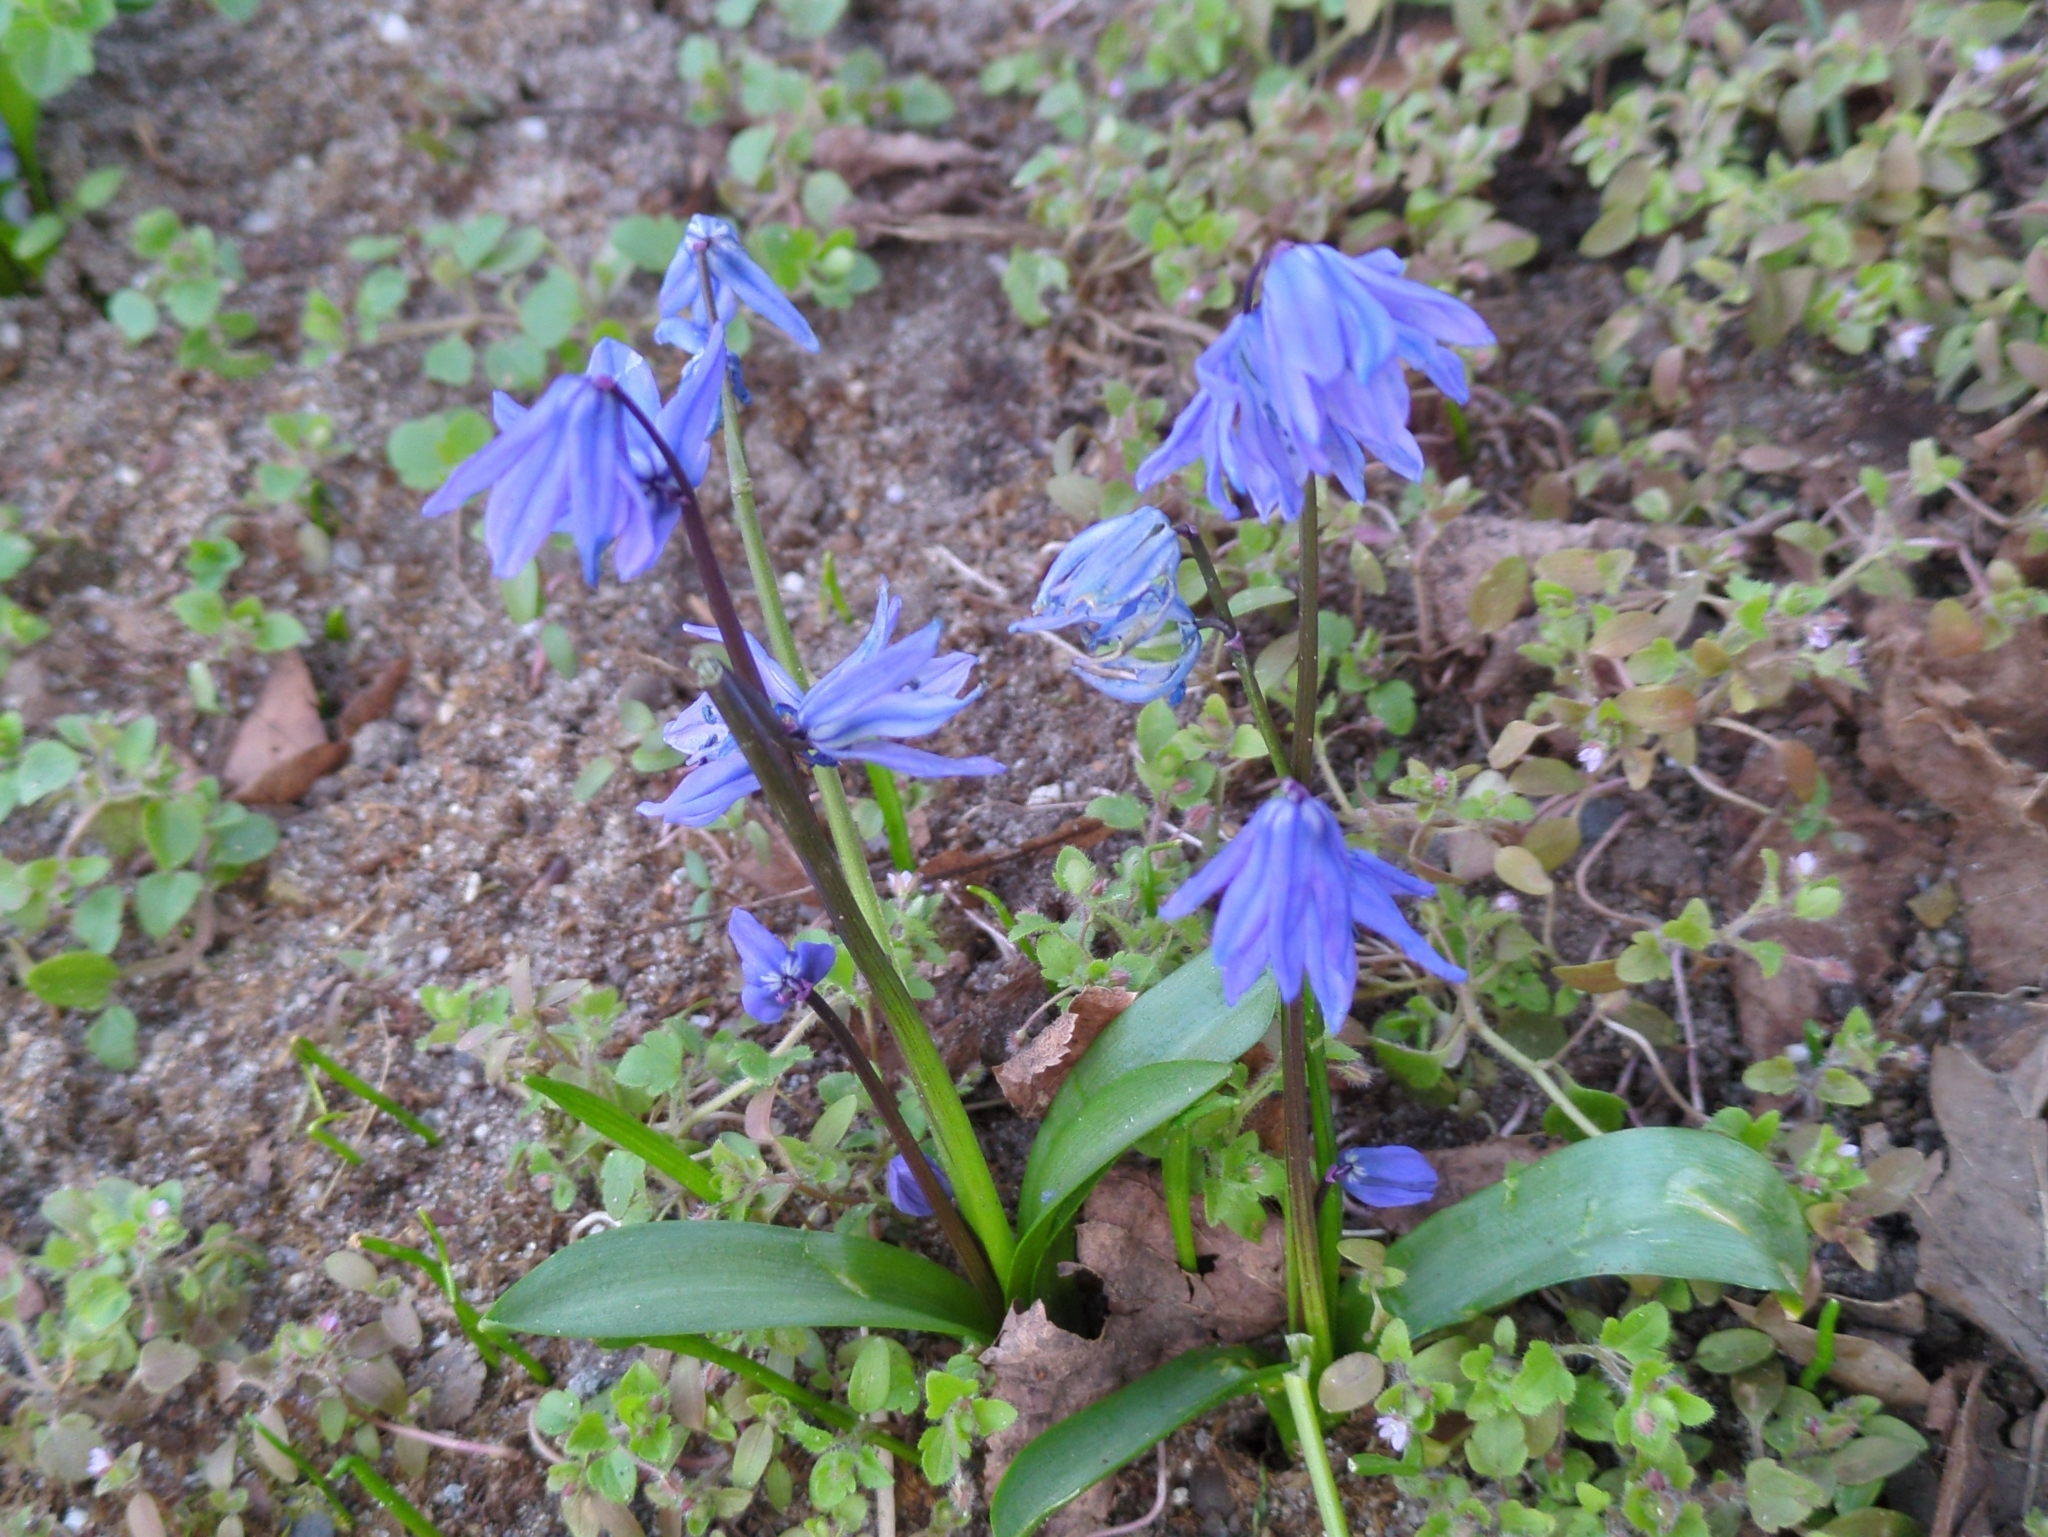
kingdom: Plantae
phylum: Tracheophyta
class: Liliopsida
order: Asparagales
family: Asparagaceae
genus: Scilla
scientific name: Scilla siberica
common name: Siberian squill
